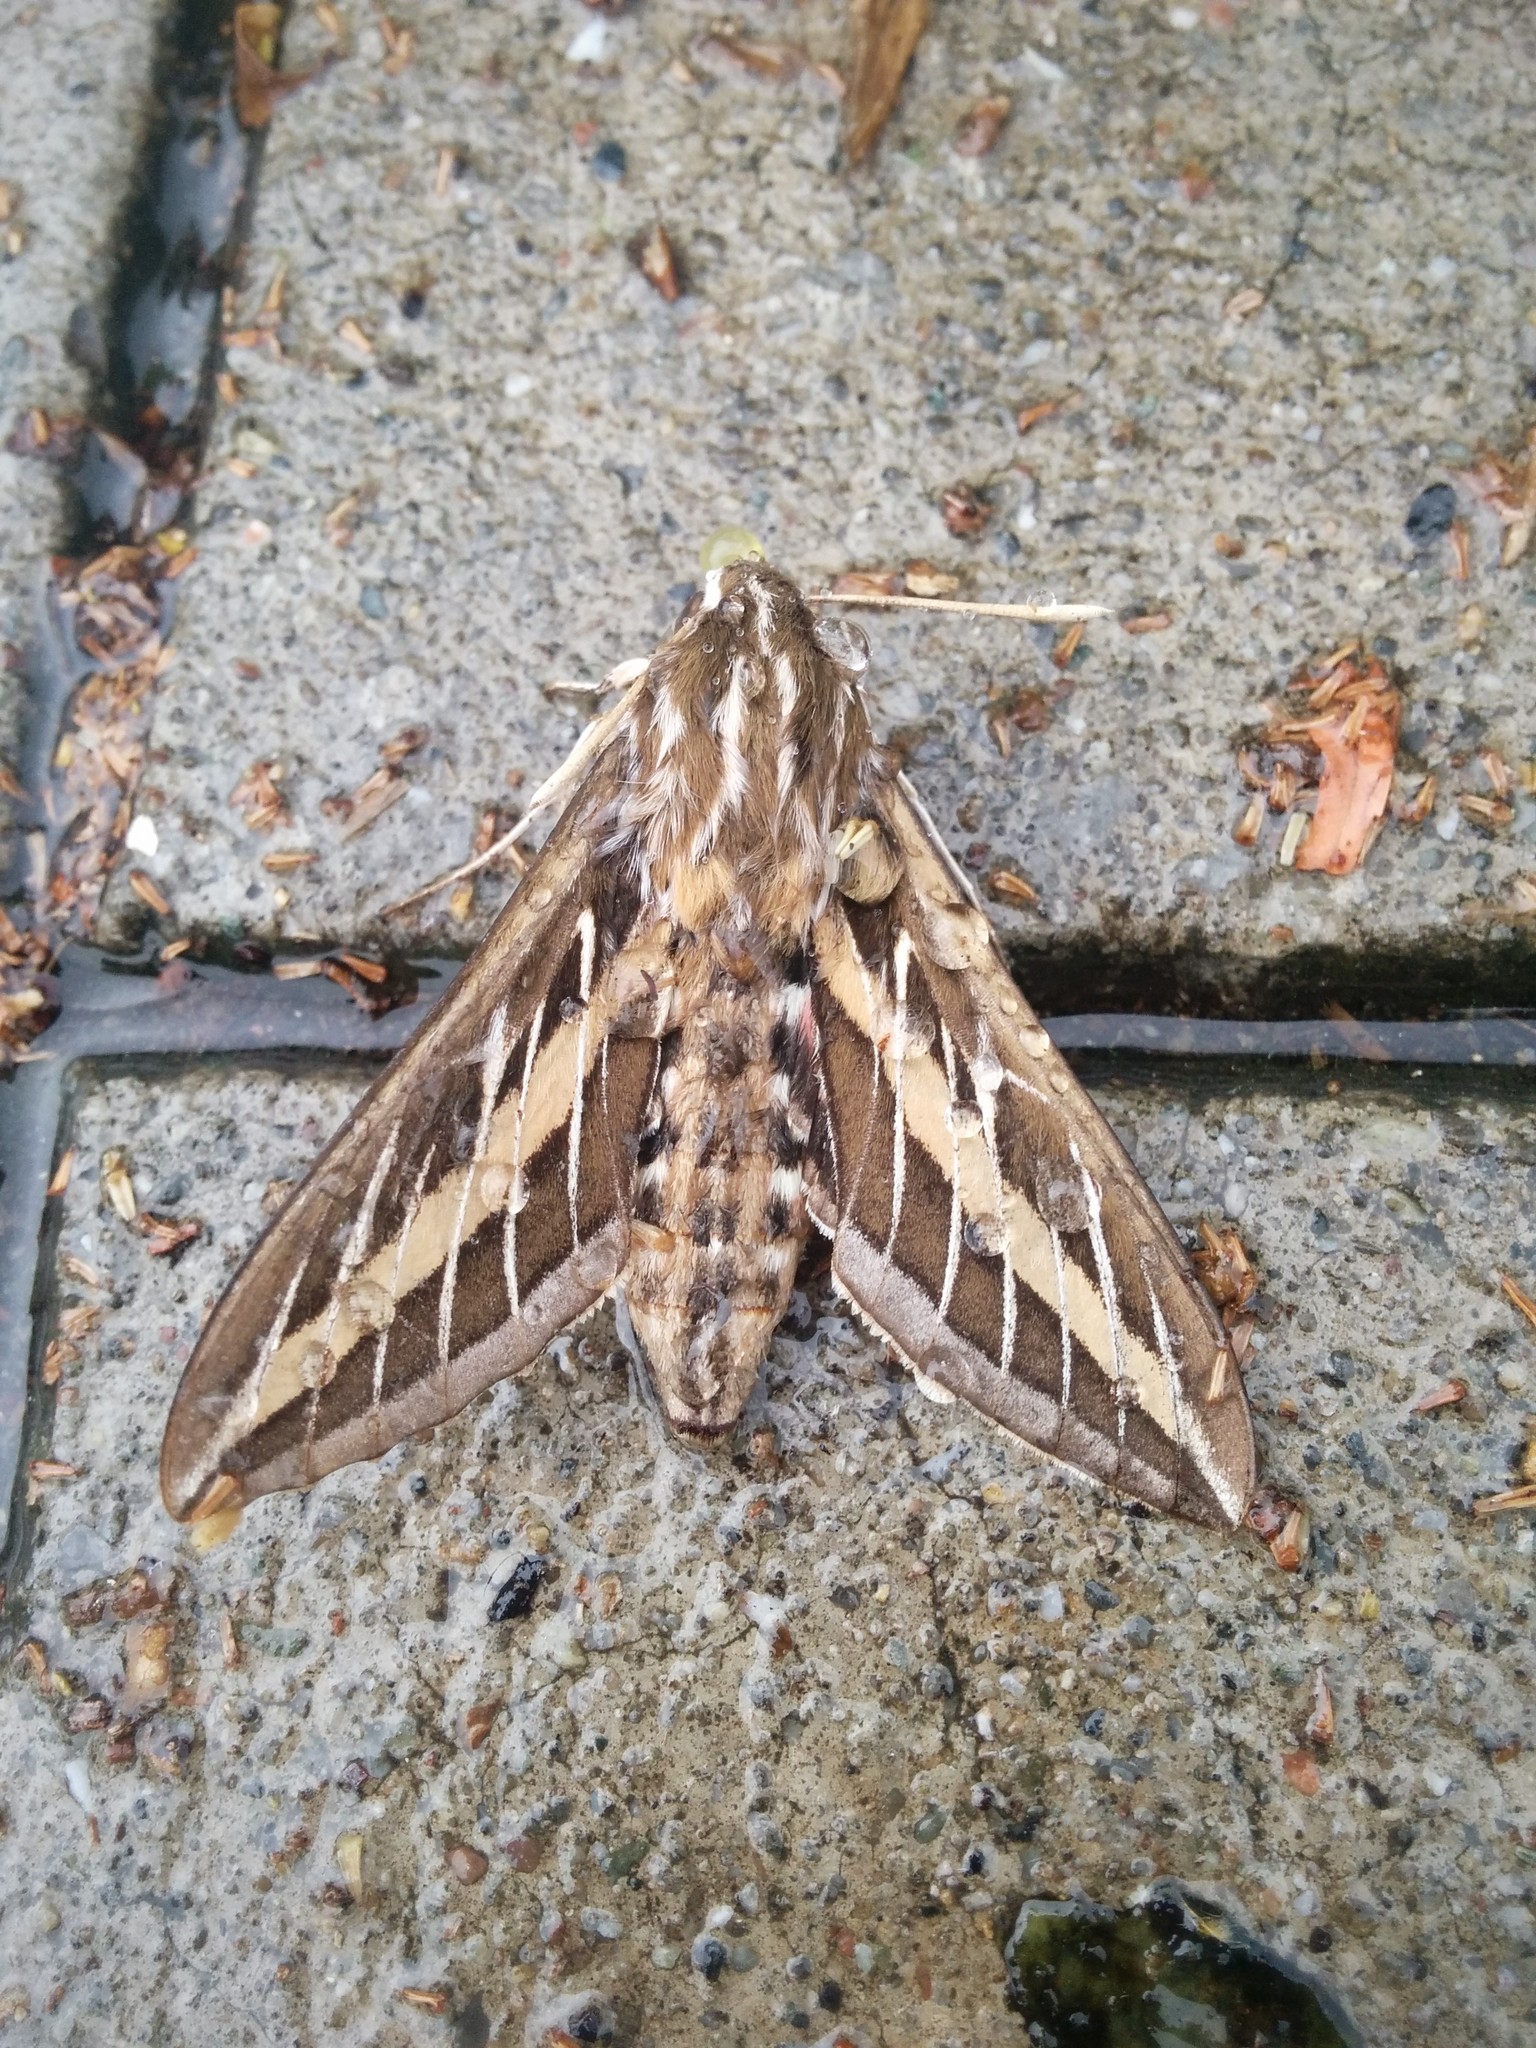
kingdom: Animalia
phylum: Arthropoda
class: Insecta
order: Lepidoptera
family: Sphingidae
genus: Hyles
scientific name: Hyles lineata
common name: White-lined sphinx
